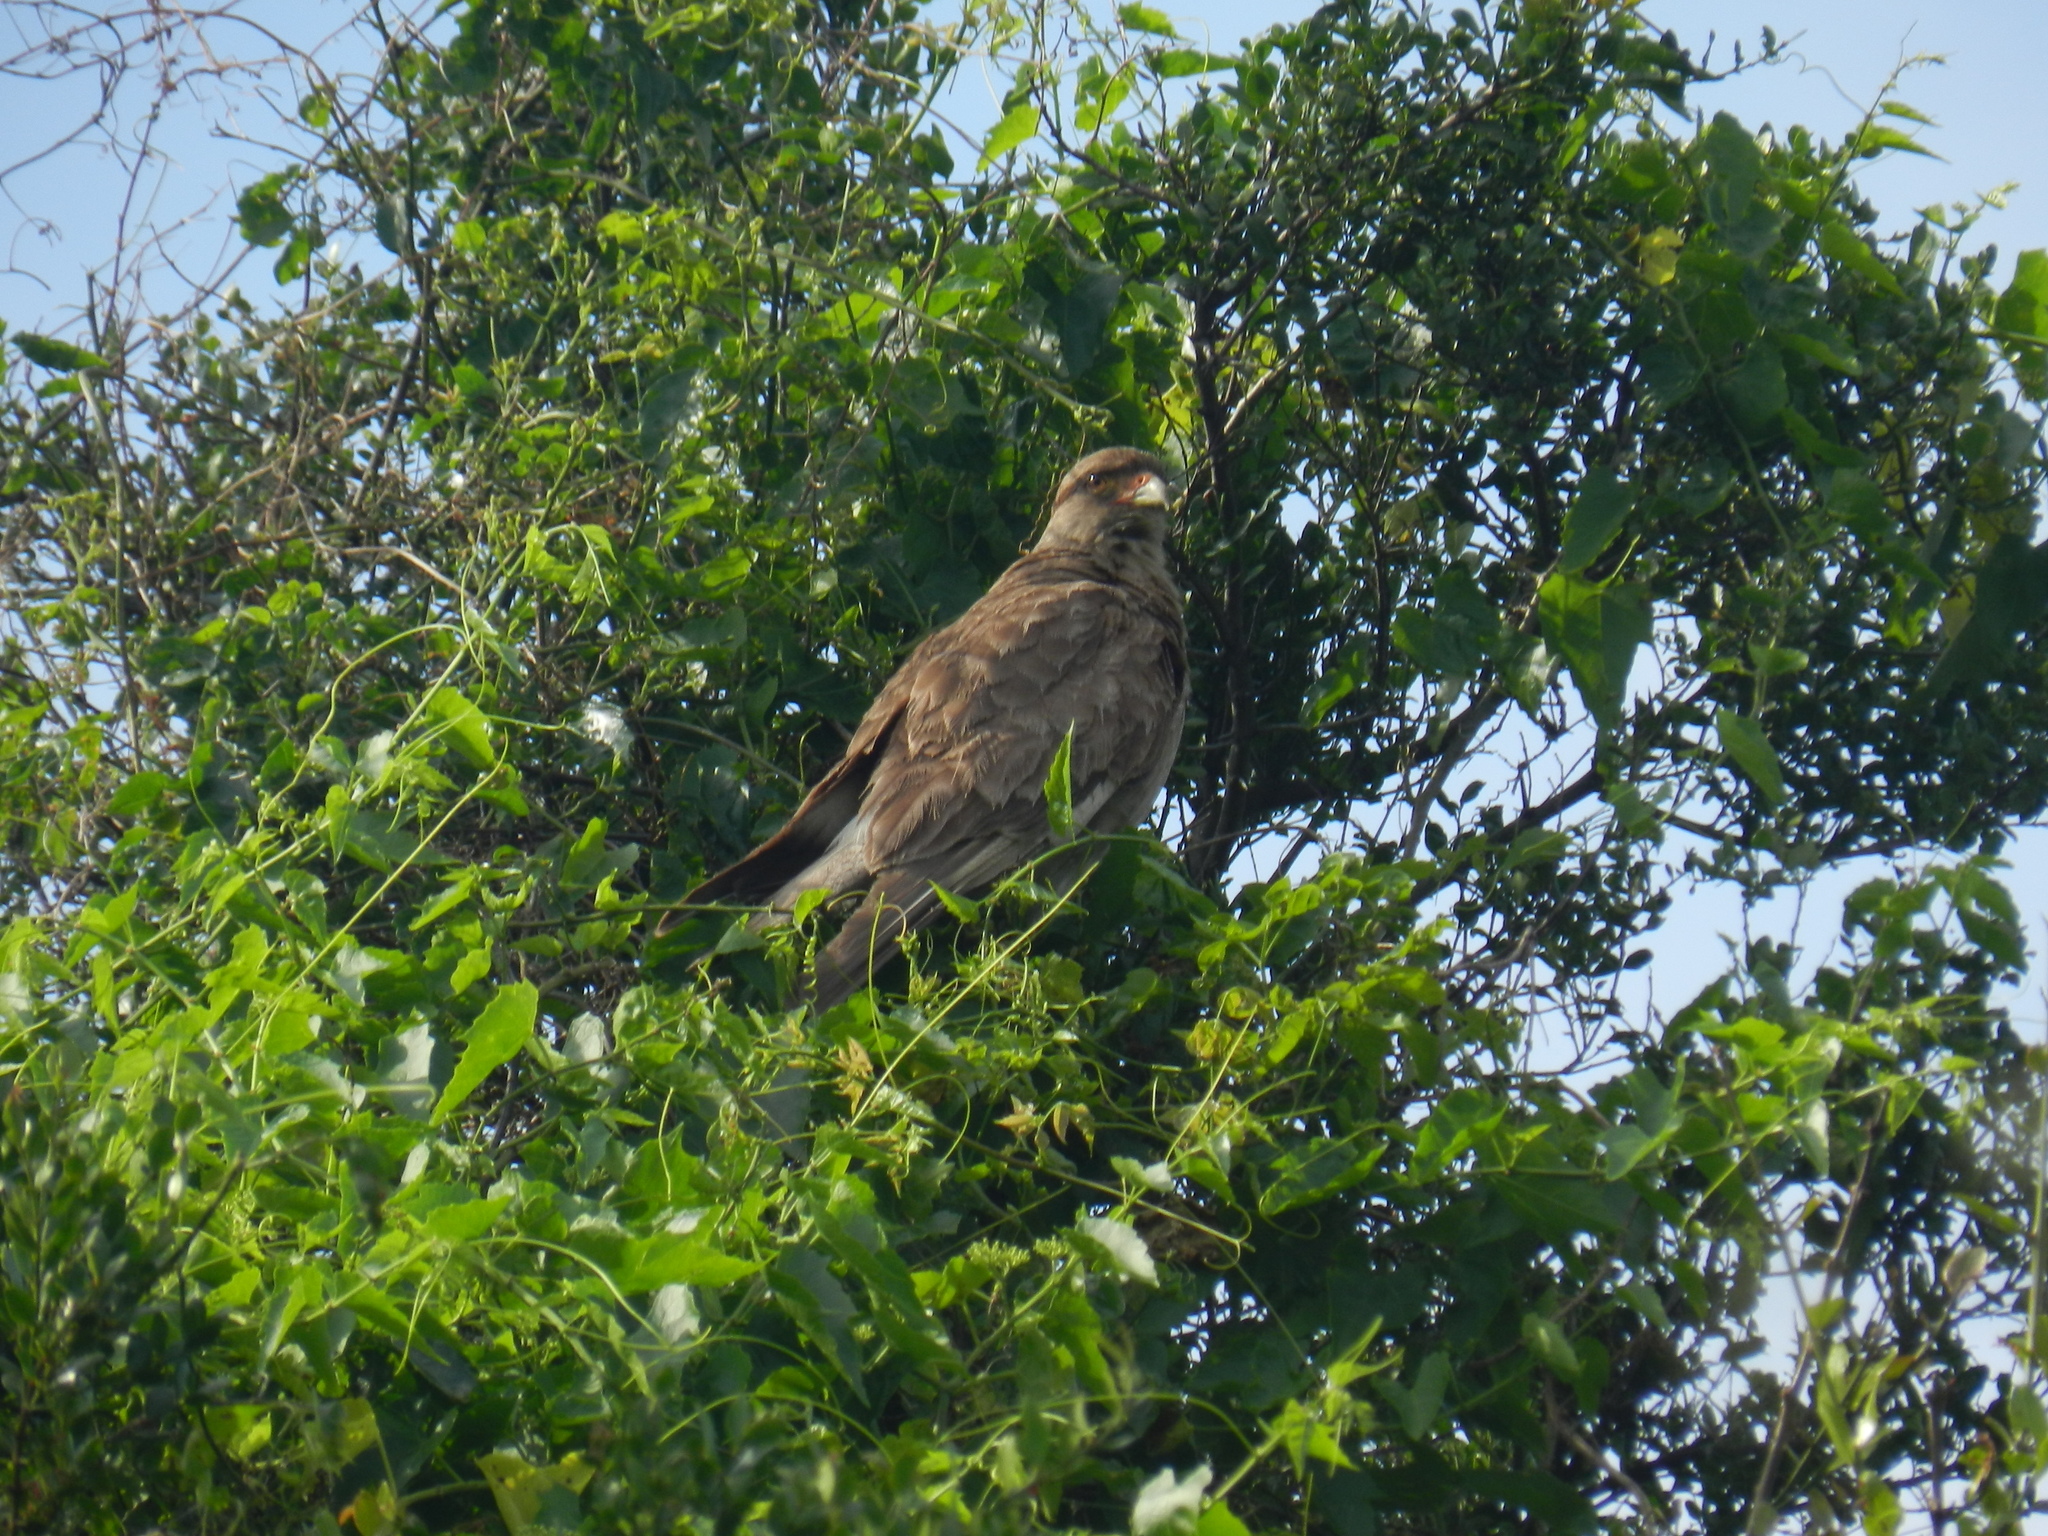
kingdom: Animalia
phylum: Chordata
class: Aves
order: Falconiformes
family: Falconidae
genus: Daptrius
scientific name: Daptrius
